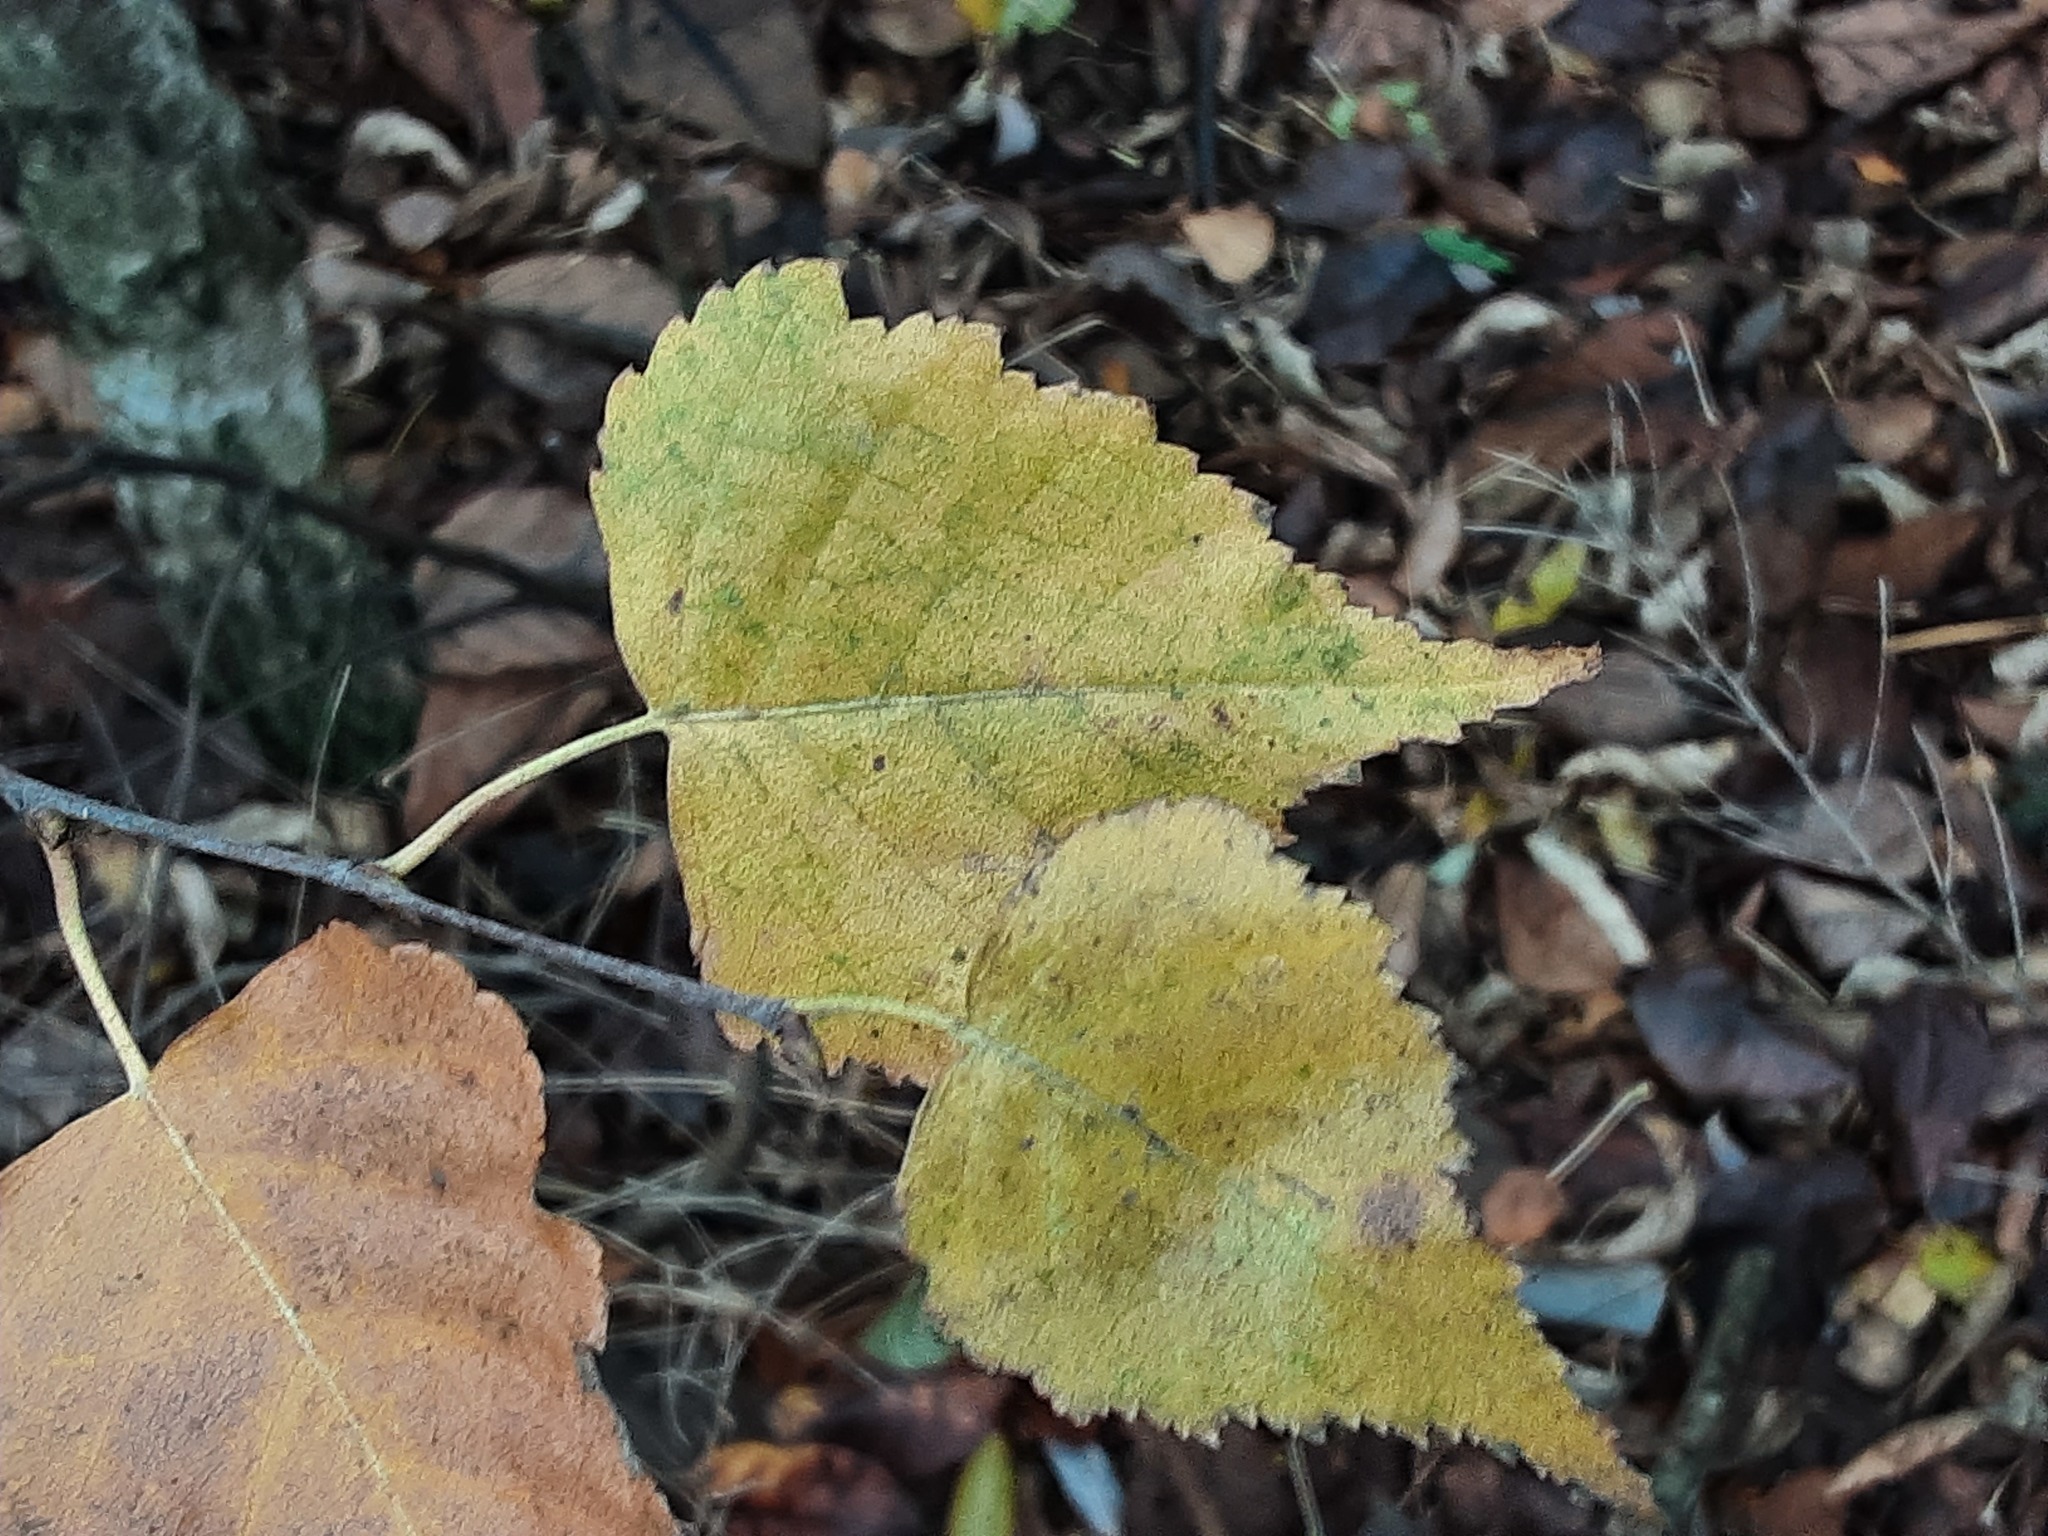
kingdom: Plantae
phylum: Tracheophyta
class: Magnoliopsida
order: Fagales
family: Betulaceae
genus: Betula
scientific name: Betula pendula
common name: Silver birch
